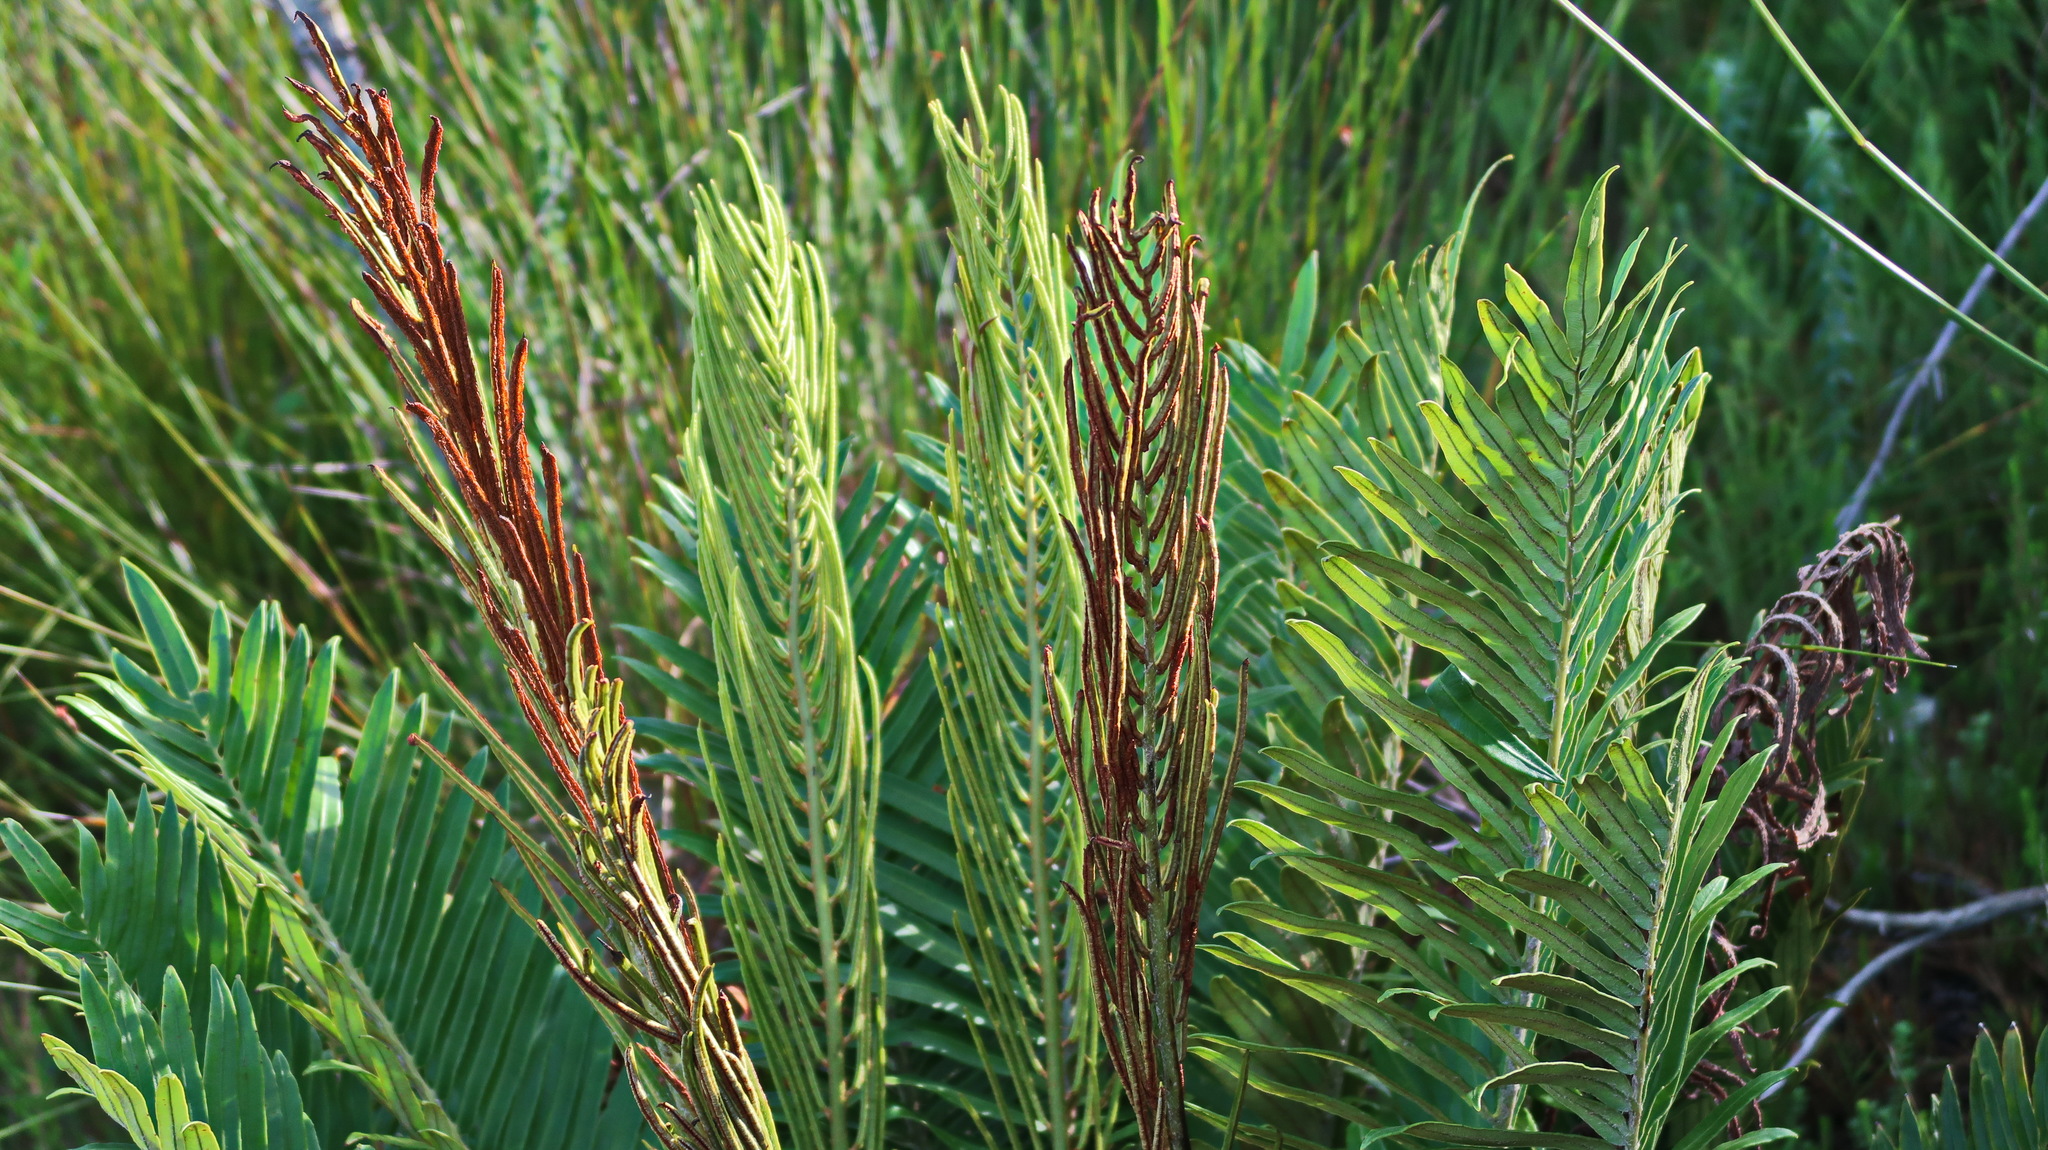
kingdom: Plantae
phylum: Tracheophyta
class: Polypodiopsida
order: Polypodiales
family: Blechnaceae
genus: Lomariocycas
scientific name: Lomariocycas tabularis
